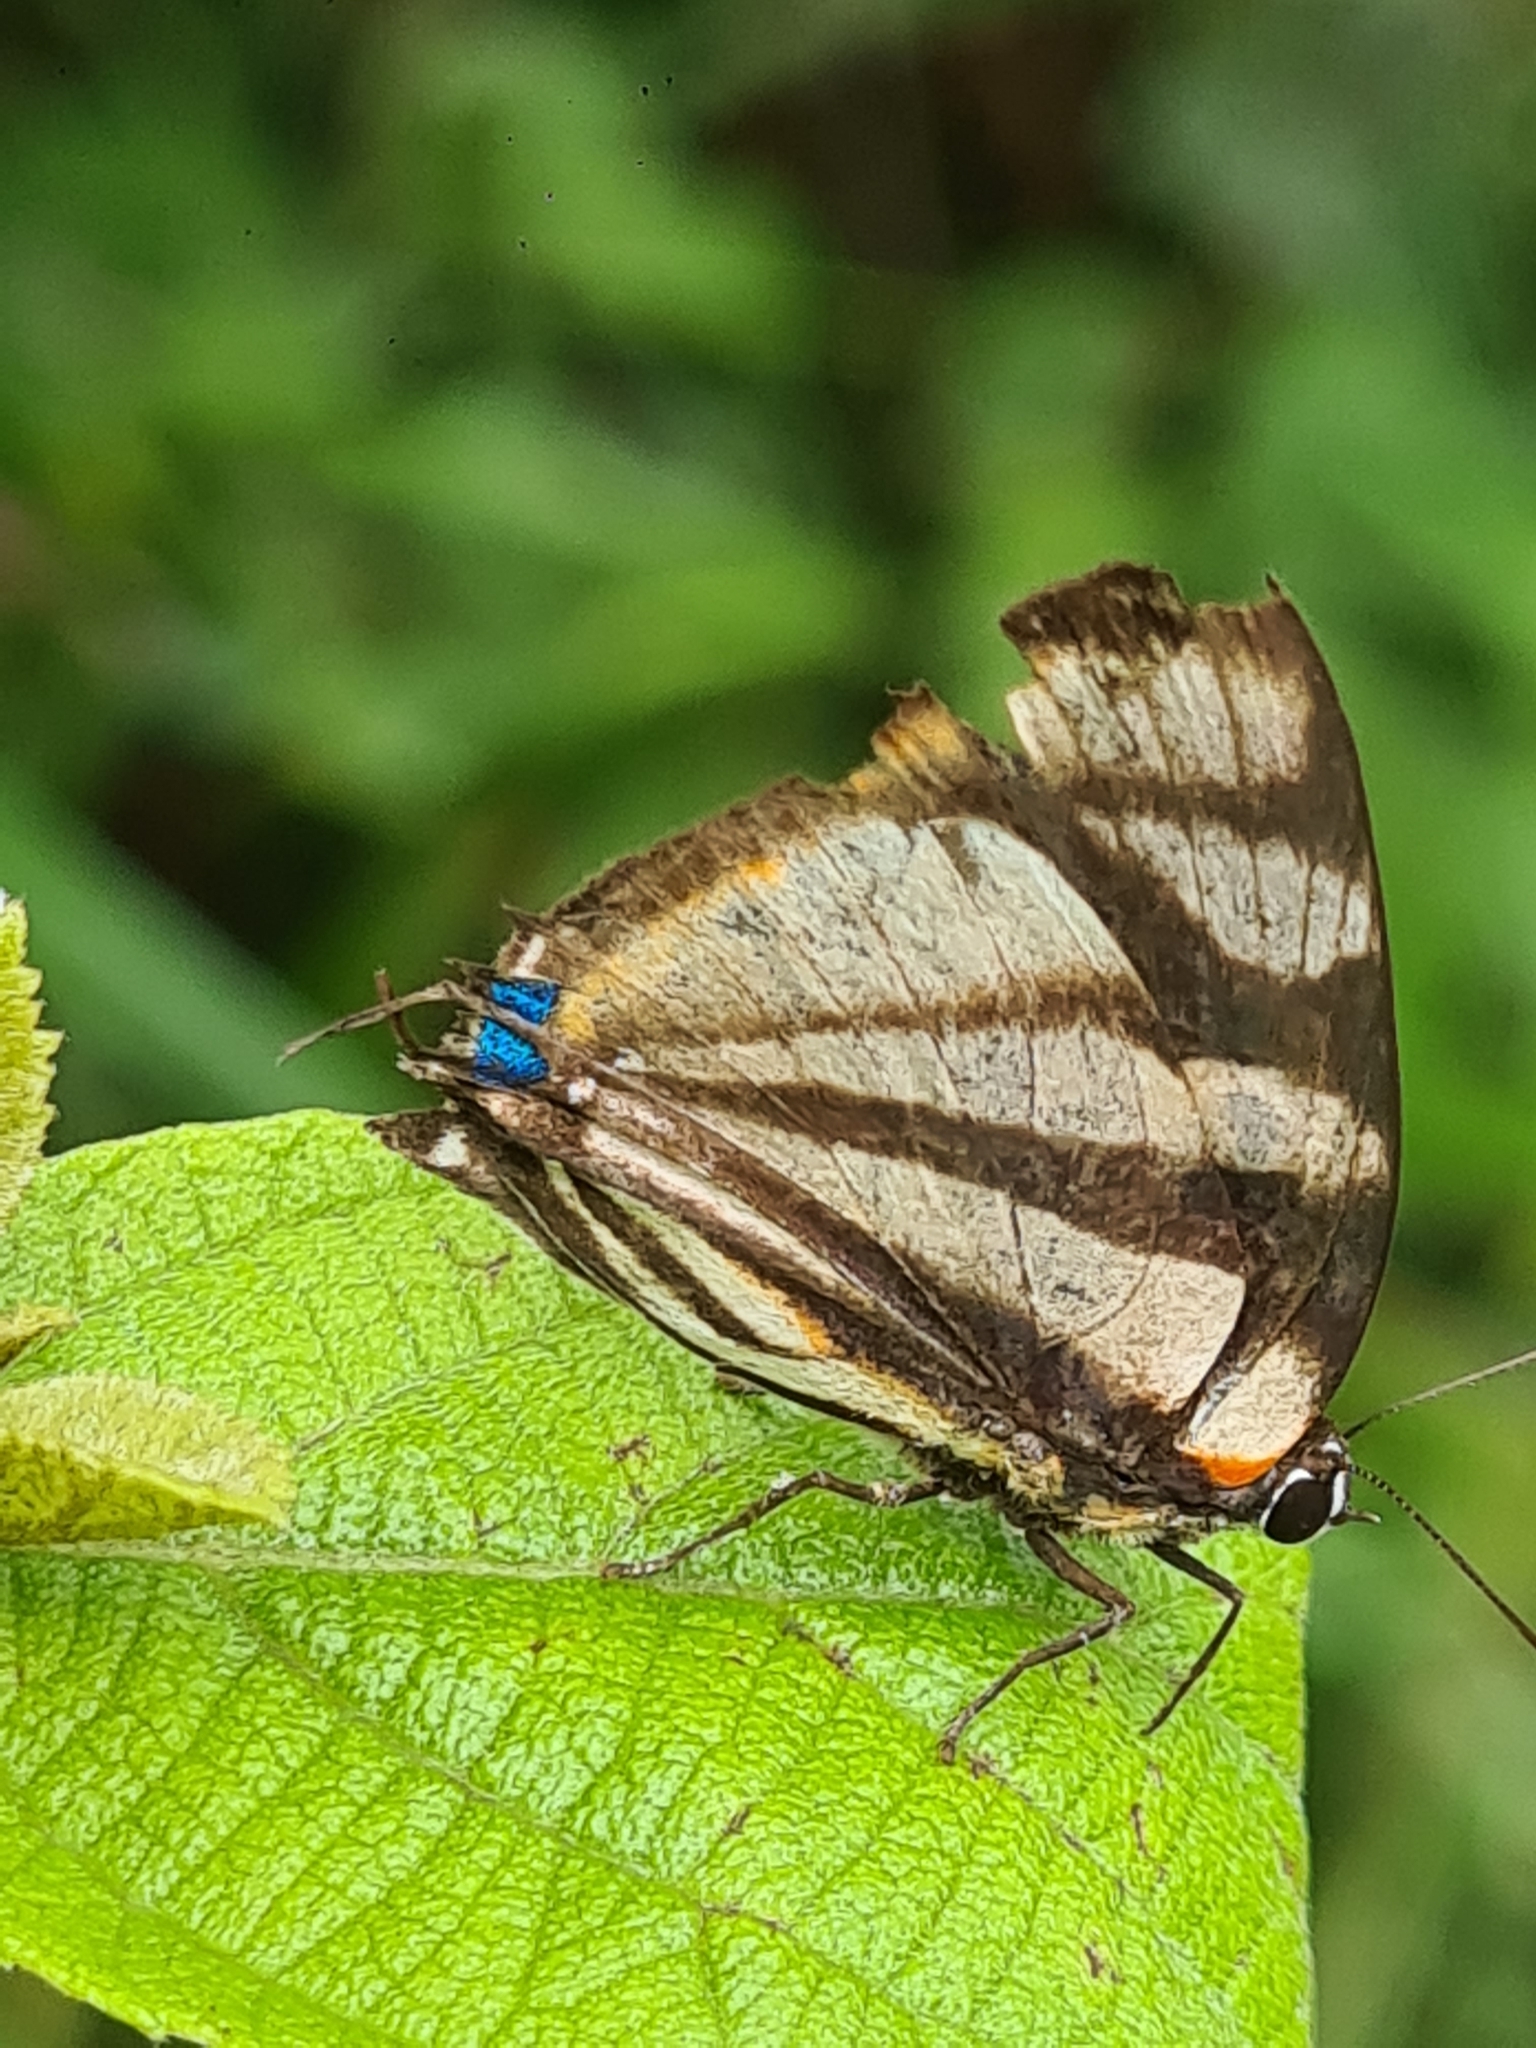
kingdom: Animalia
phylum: Arthropoda
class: Insecta
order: Lepidoptera
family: Lycaenidae
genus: Cycnus
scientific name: Cycnus phaleros
